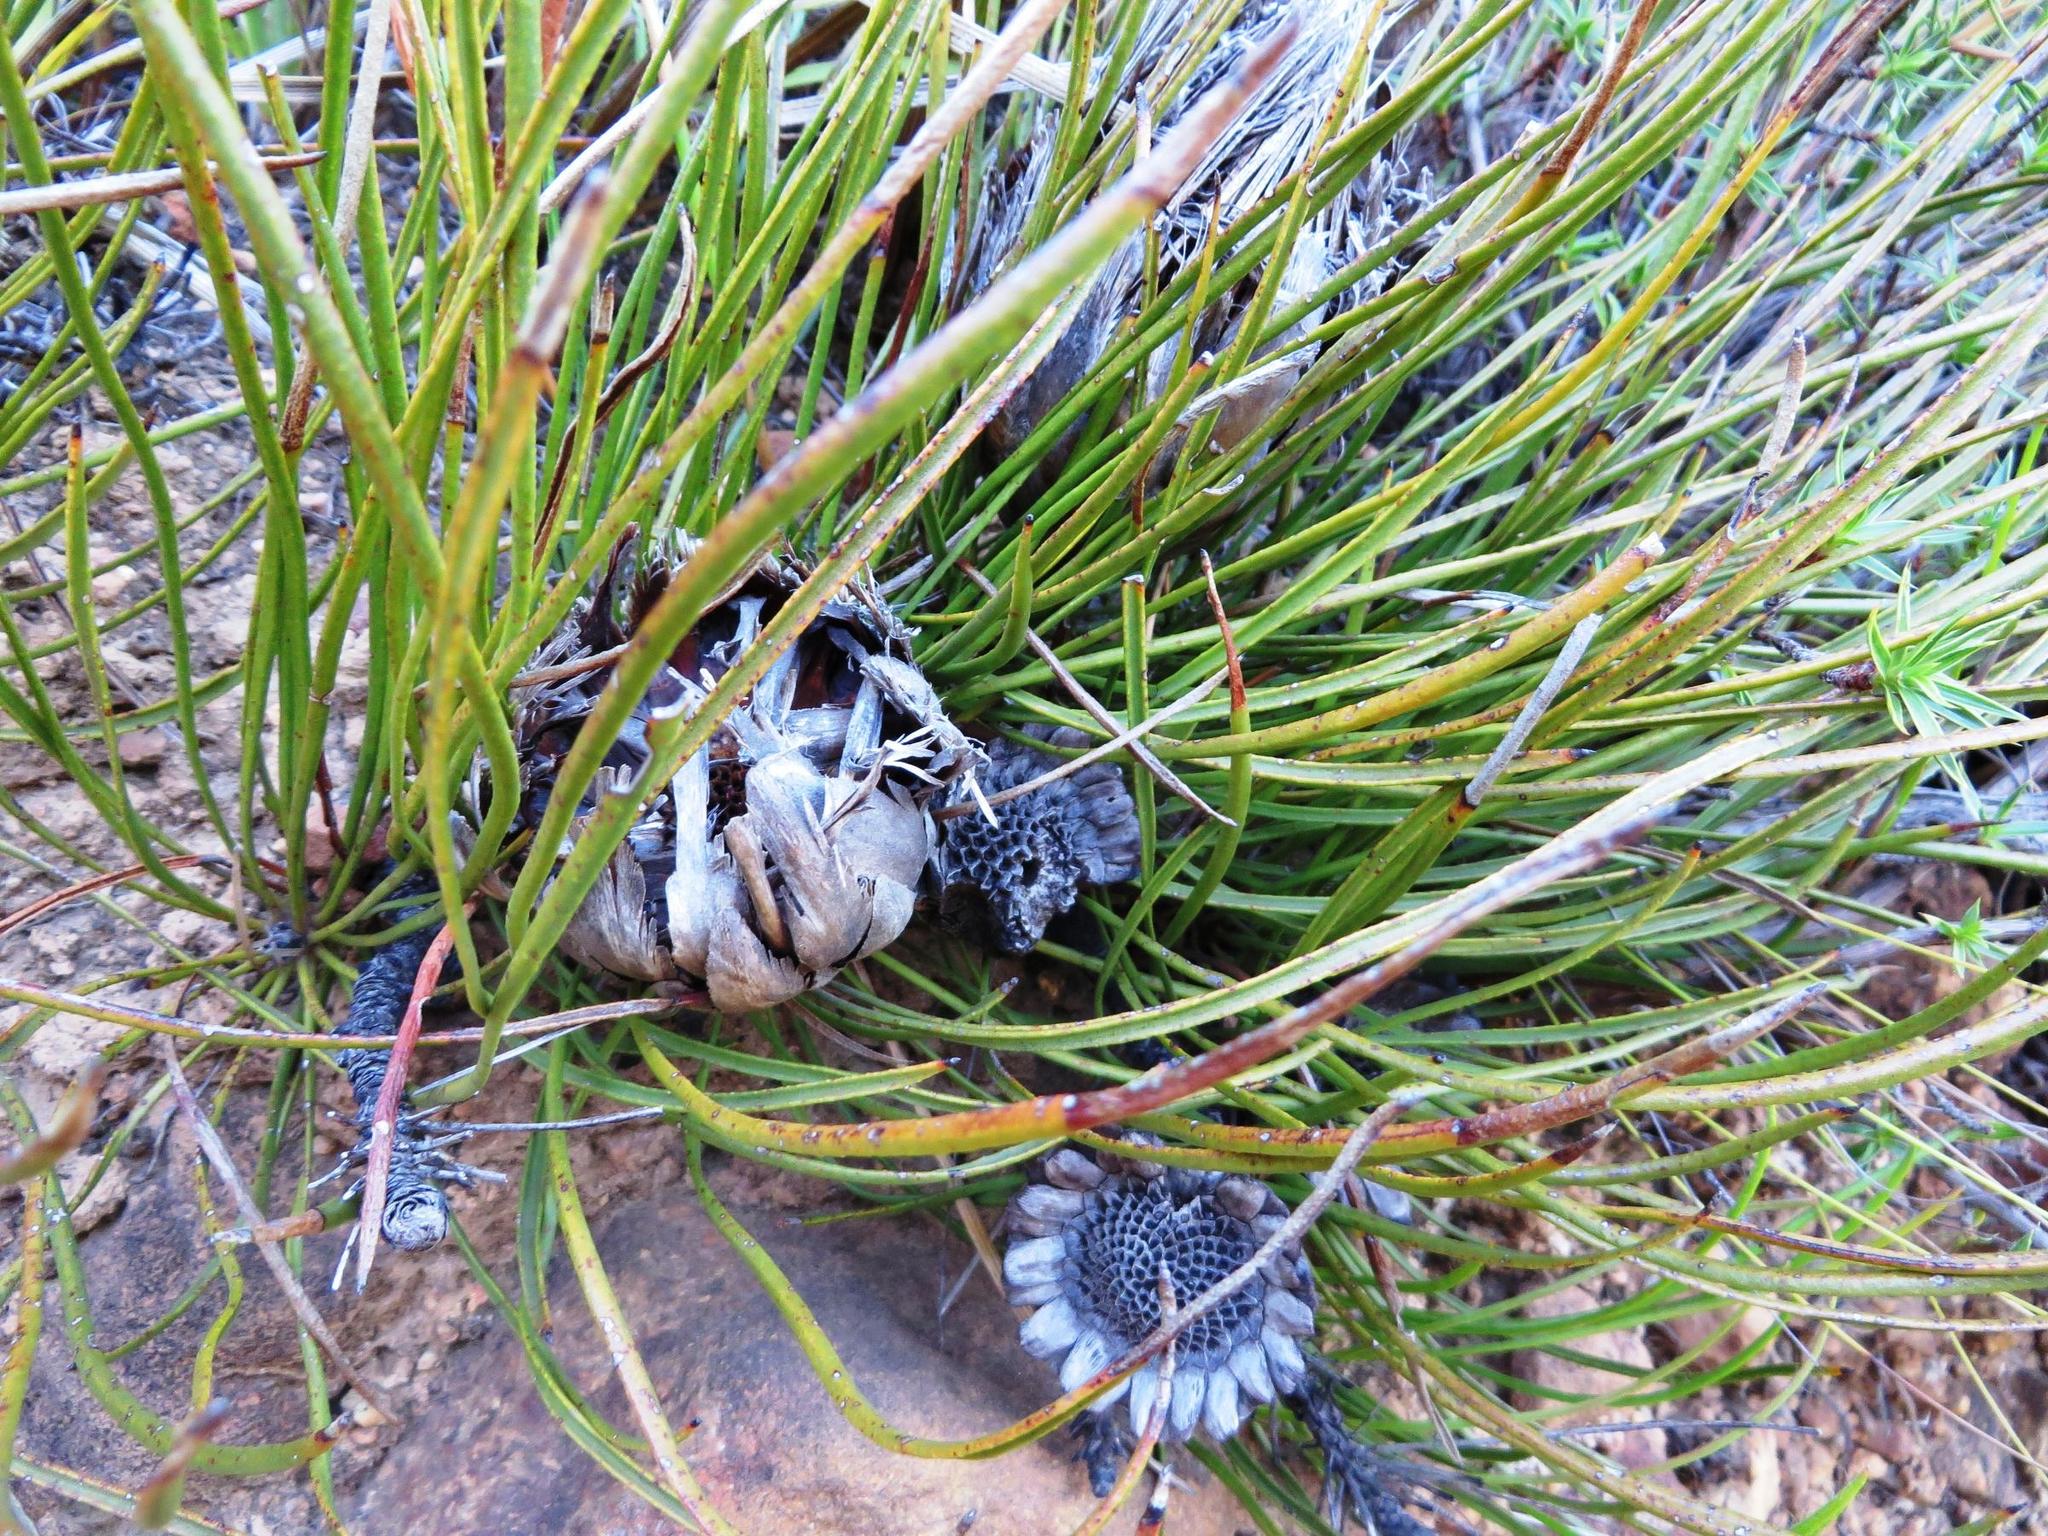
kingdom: Plantae
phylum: Tracheophyta
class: Magnoliopsida
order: Proteales
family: Proteaceae
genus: Protea
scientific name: Protea scorzonerifolia
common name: Channel-leaf sugarbush
